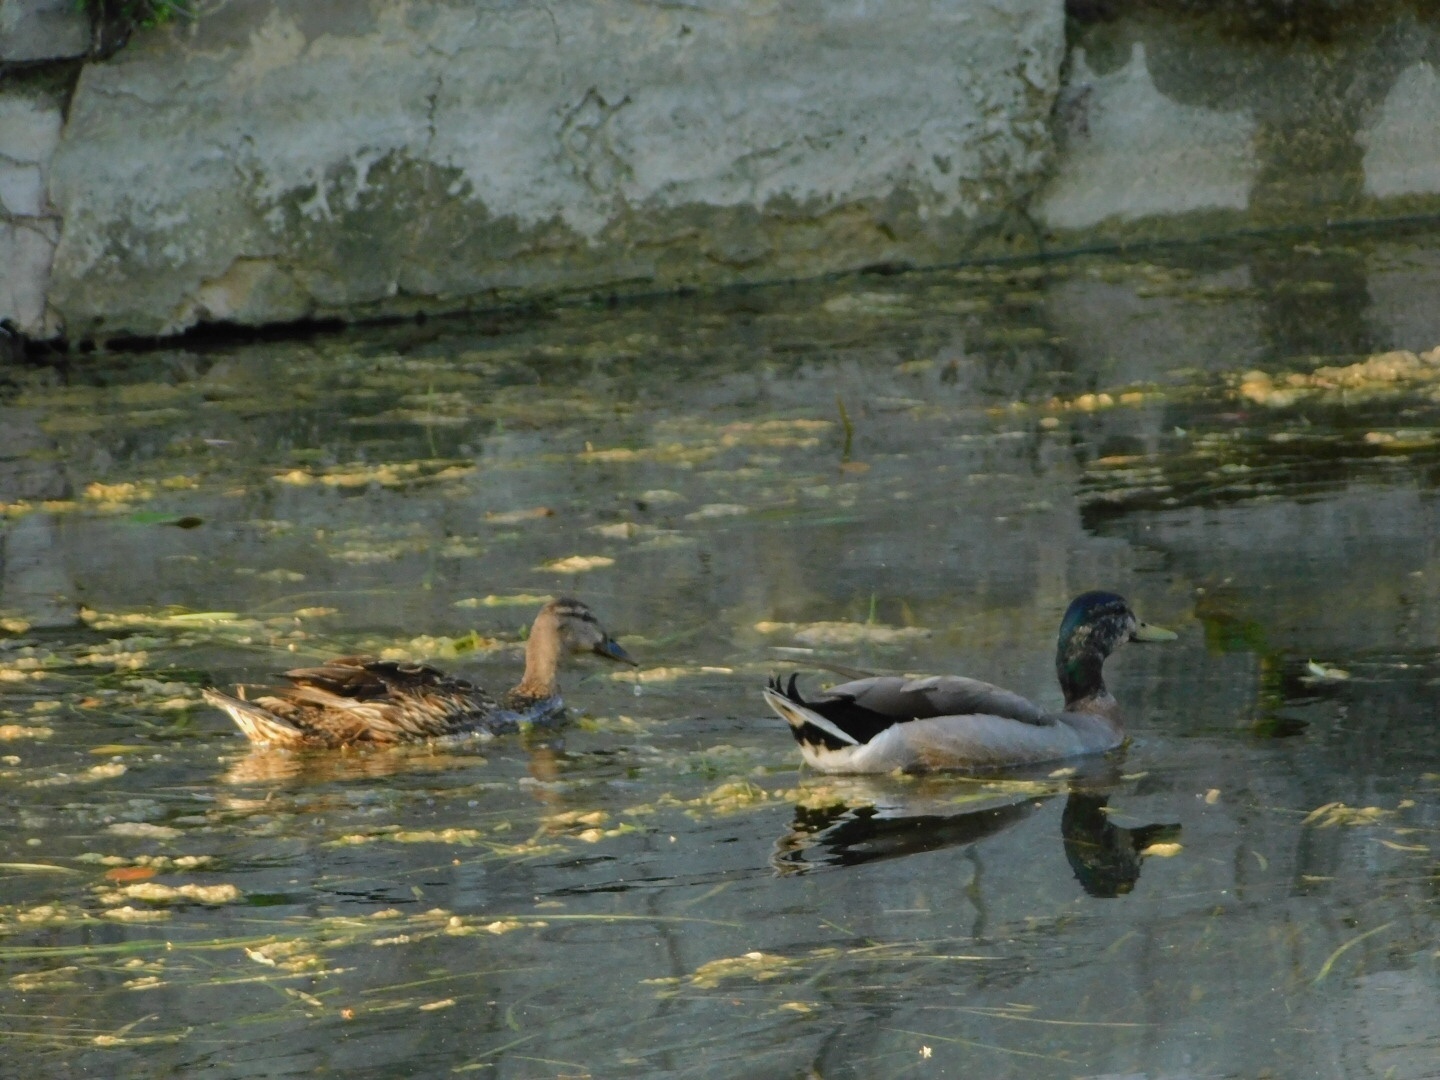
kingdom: Animalia
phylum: Chordata
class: Aves
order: Anseriformes
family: Anatidae
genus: Anas
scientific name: Anas platyrhynchos
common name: Mallard
